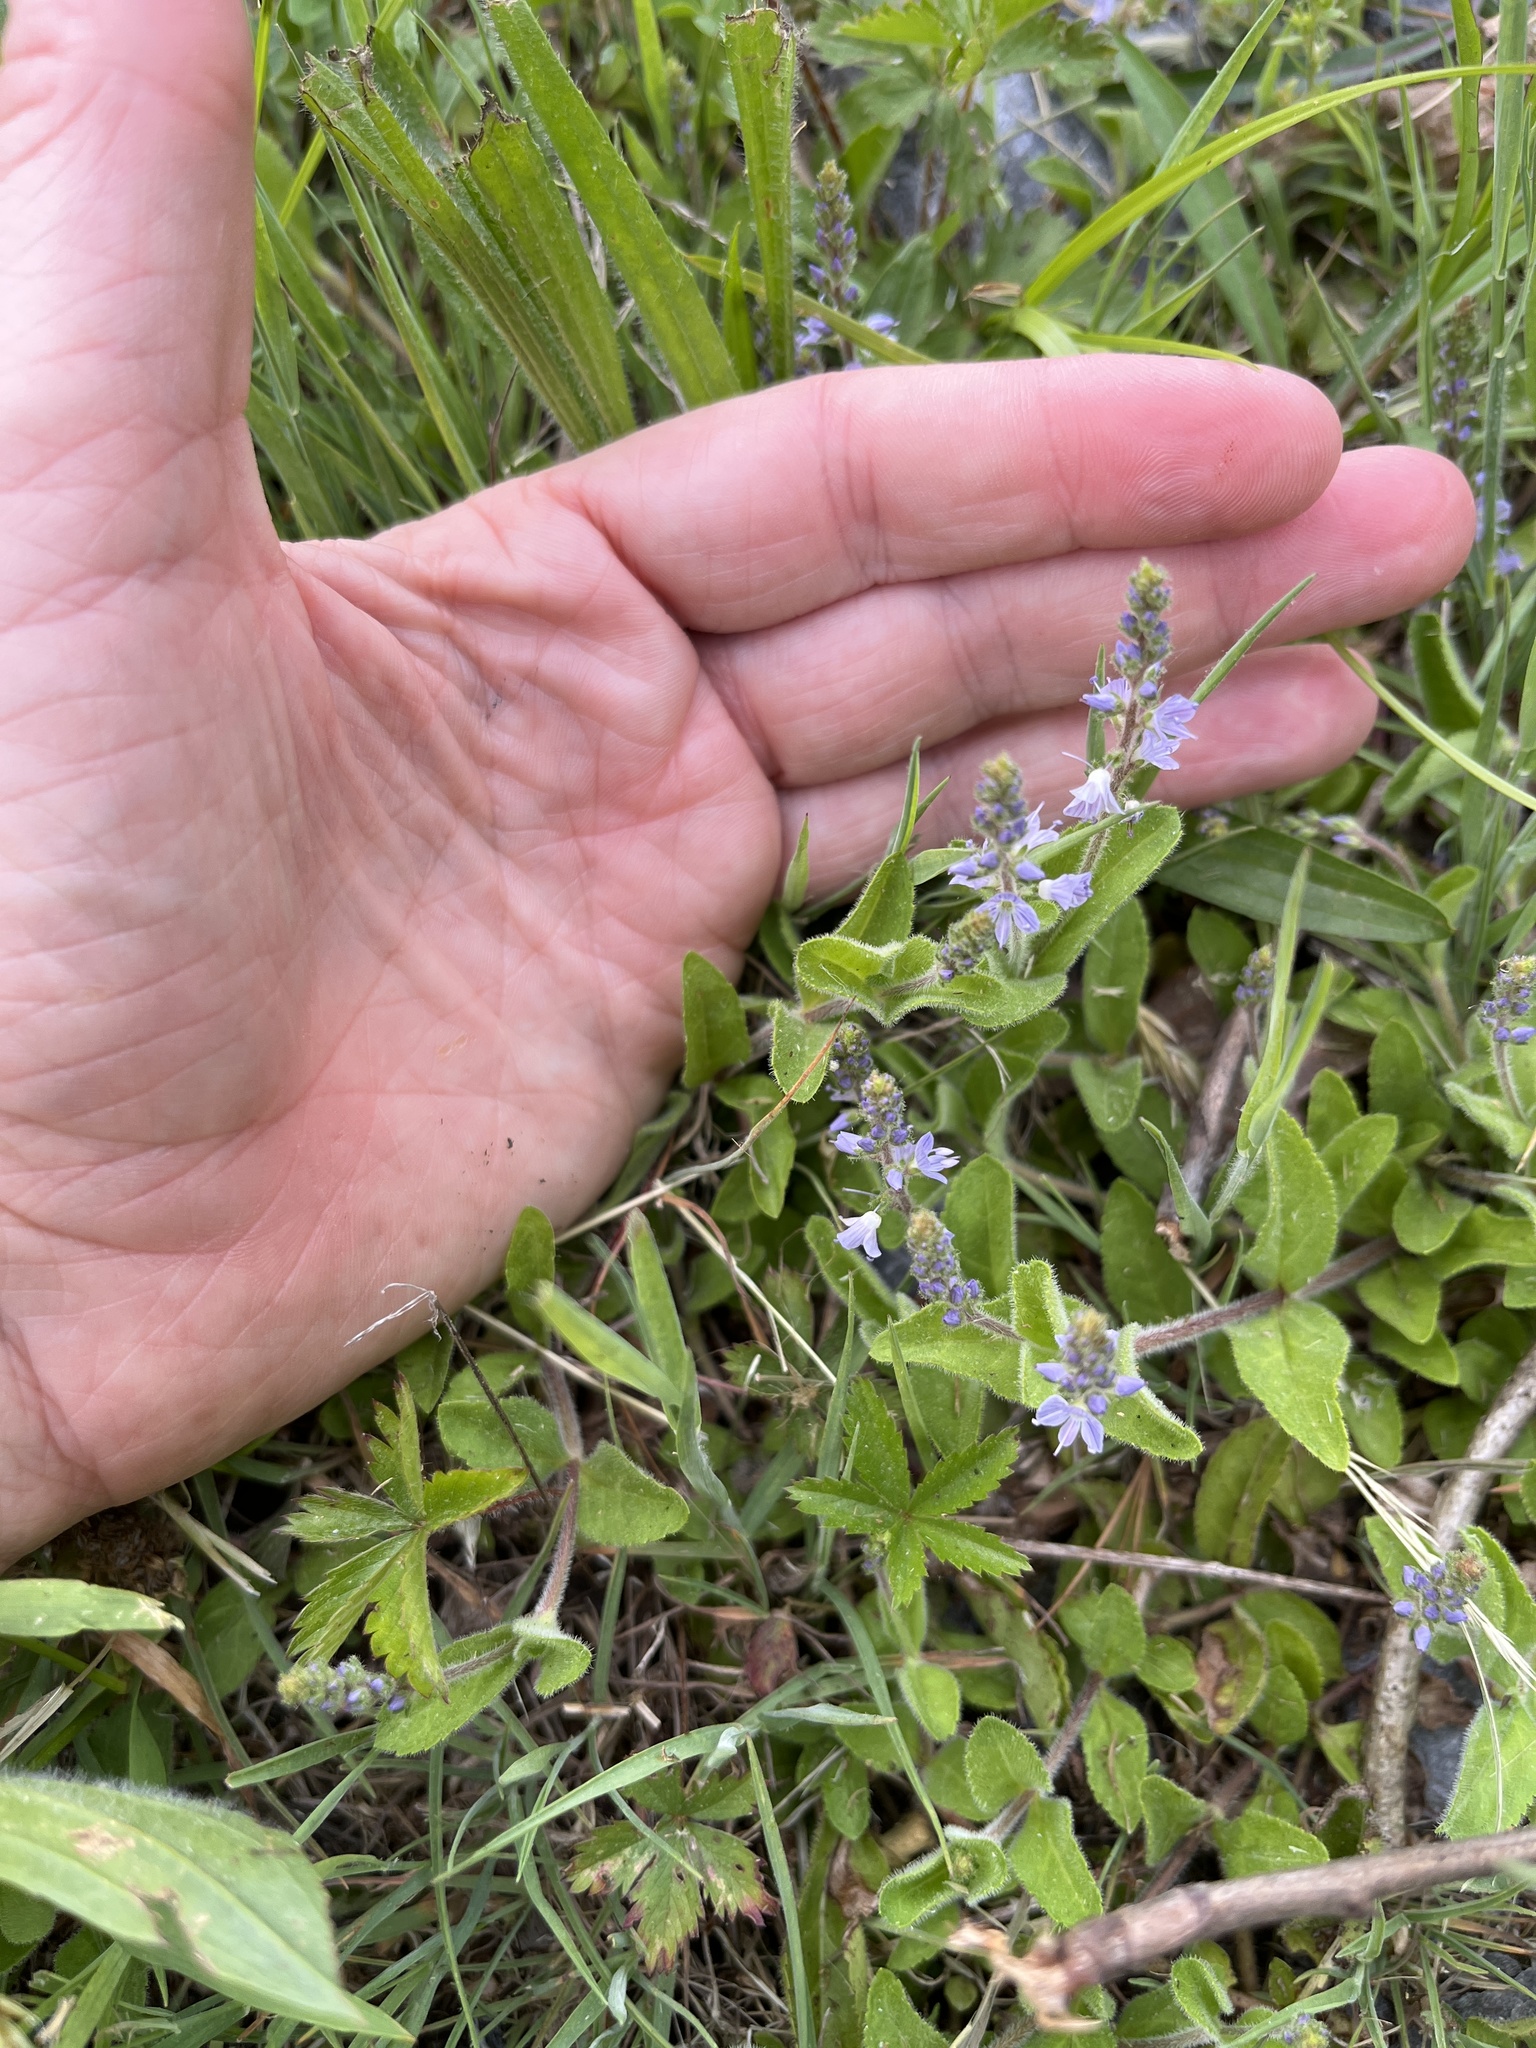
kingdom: Plantae
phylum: Tracheophyta
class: Magnoliopsida
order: Lamiales
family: Plantaginaceae
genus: Veronica
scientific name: Veronica officinalis
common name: Common speedwell
